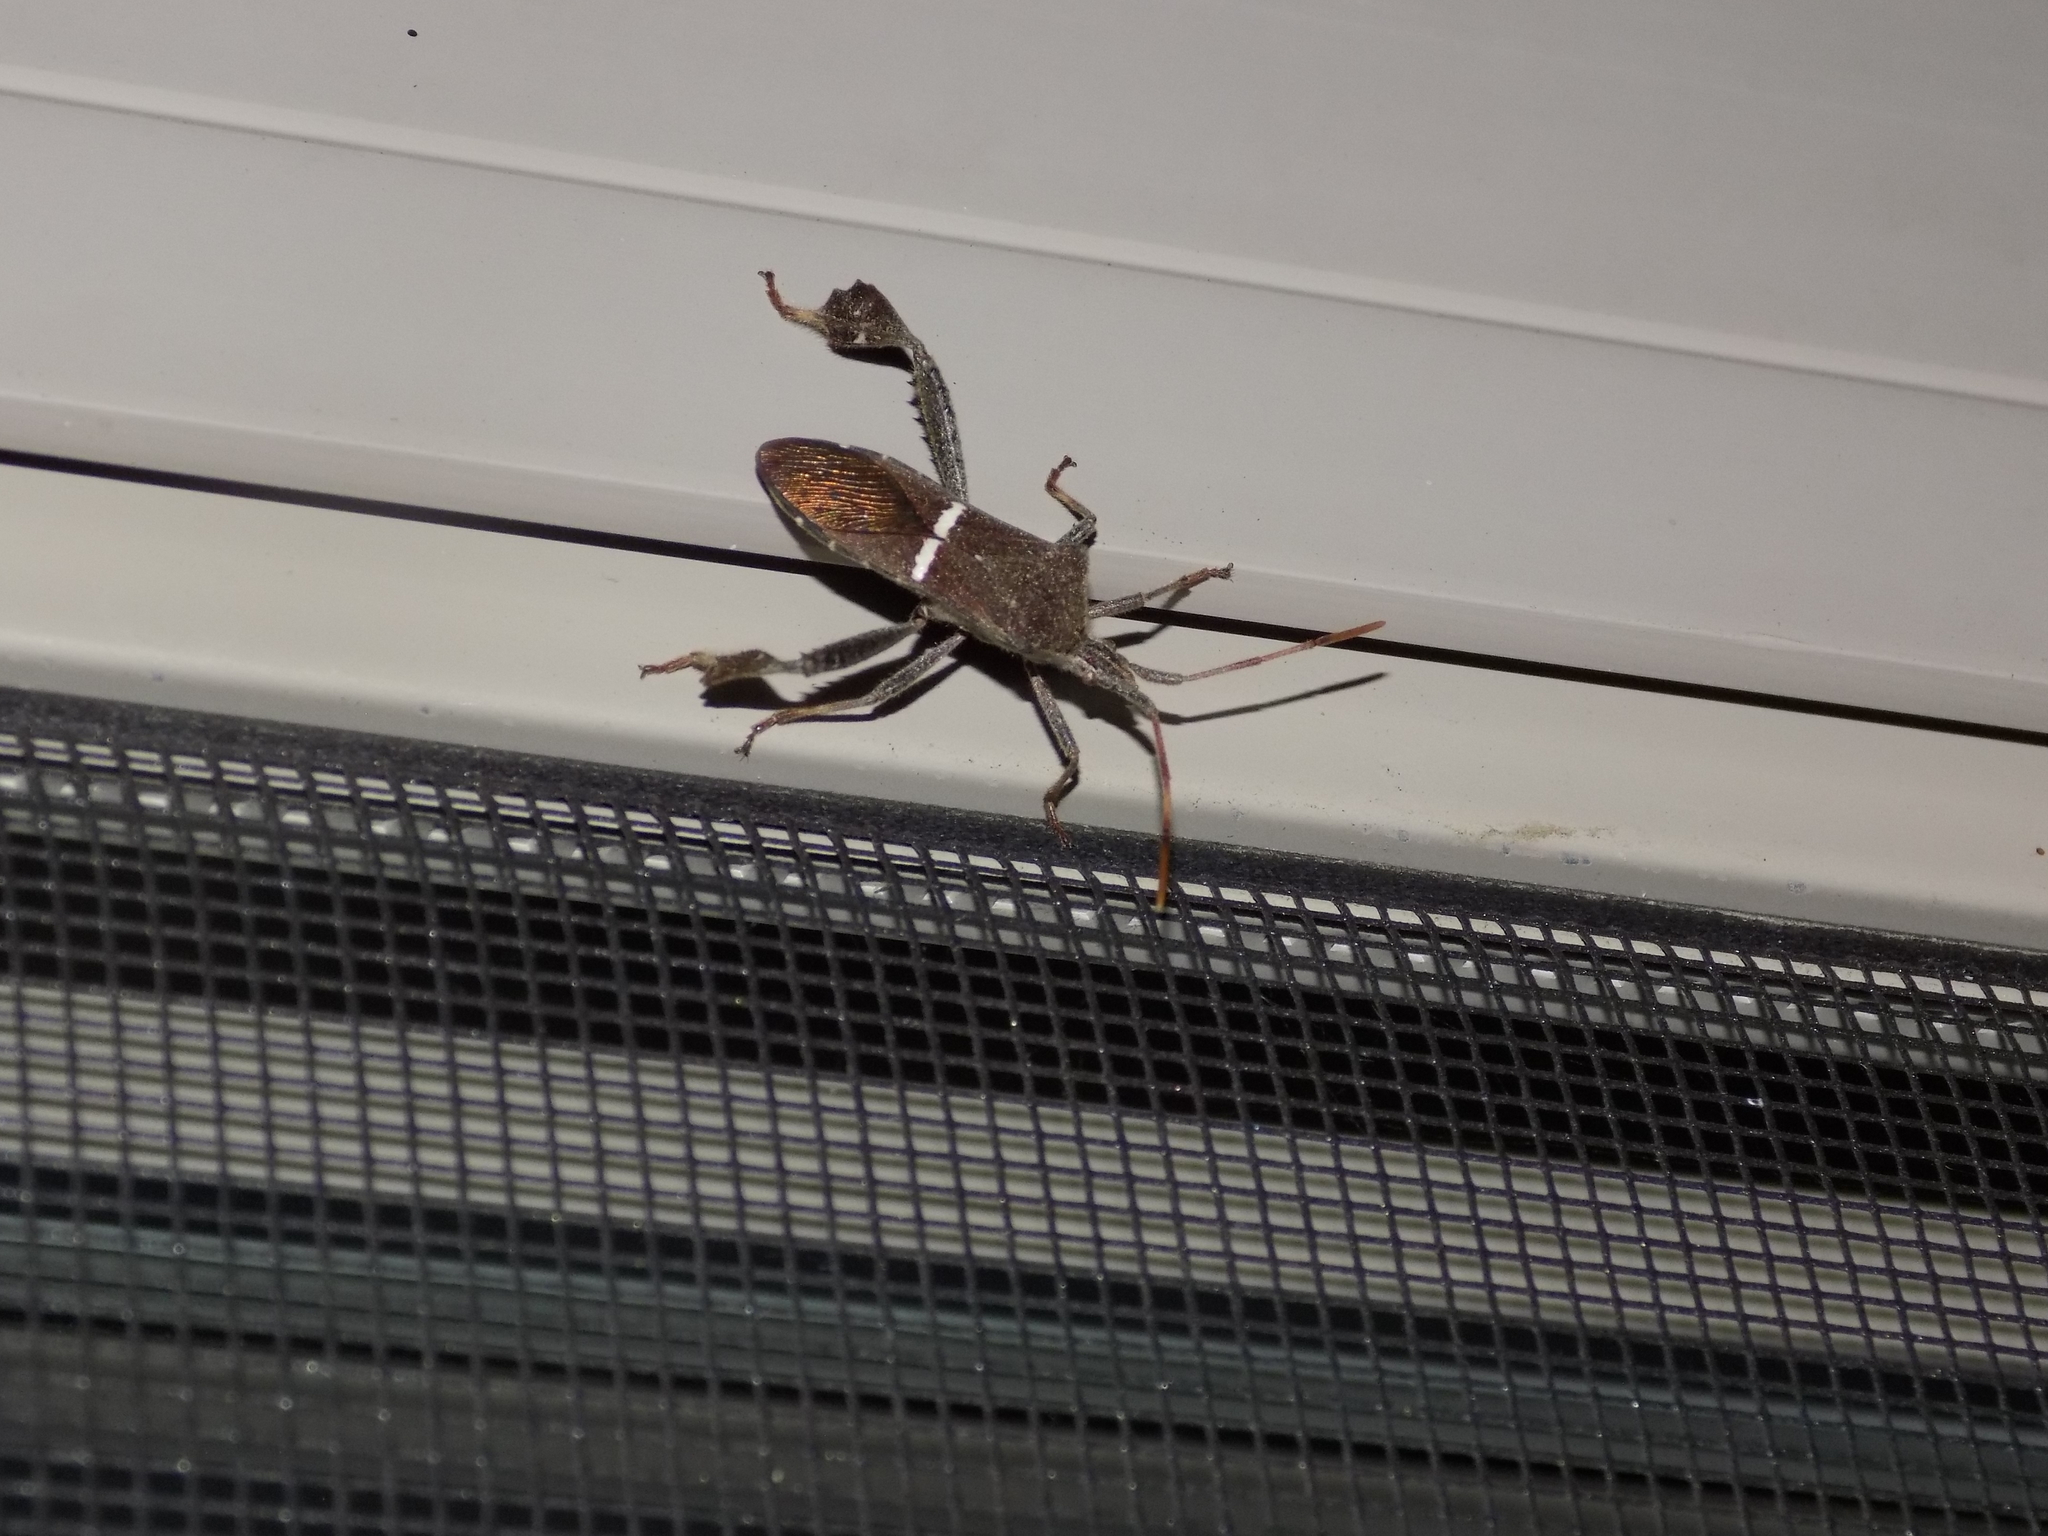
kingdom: Animalia
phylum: Arthropoda
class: Insecta
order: Hemiptera
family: Coreidae
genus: Leptoglossus
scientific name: Leptoglossus phyllopus
